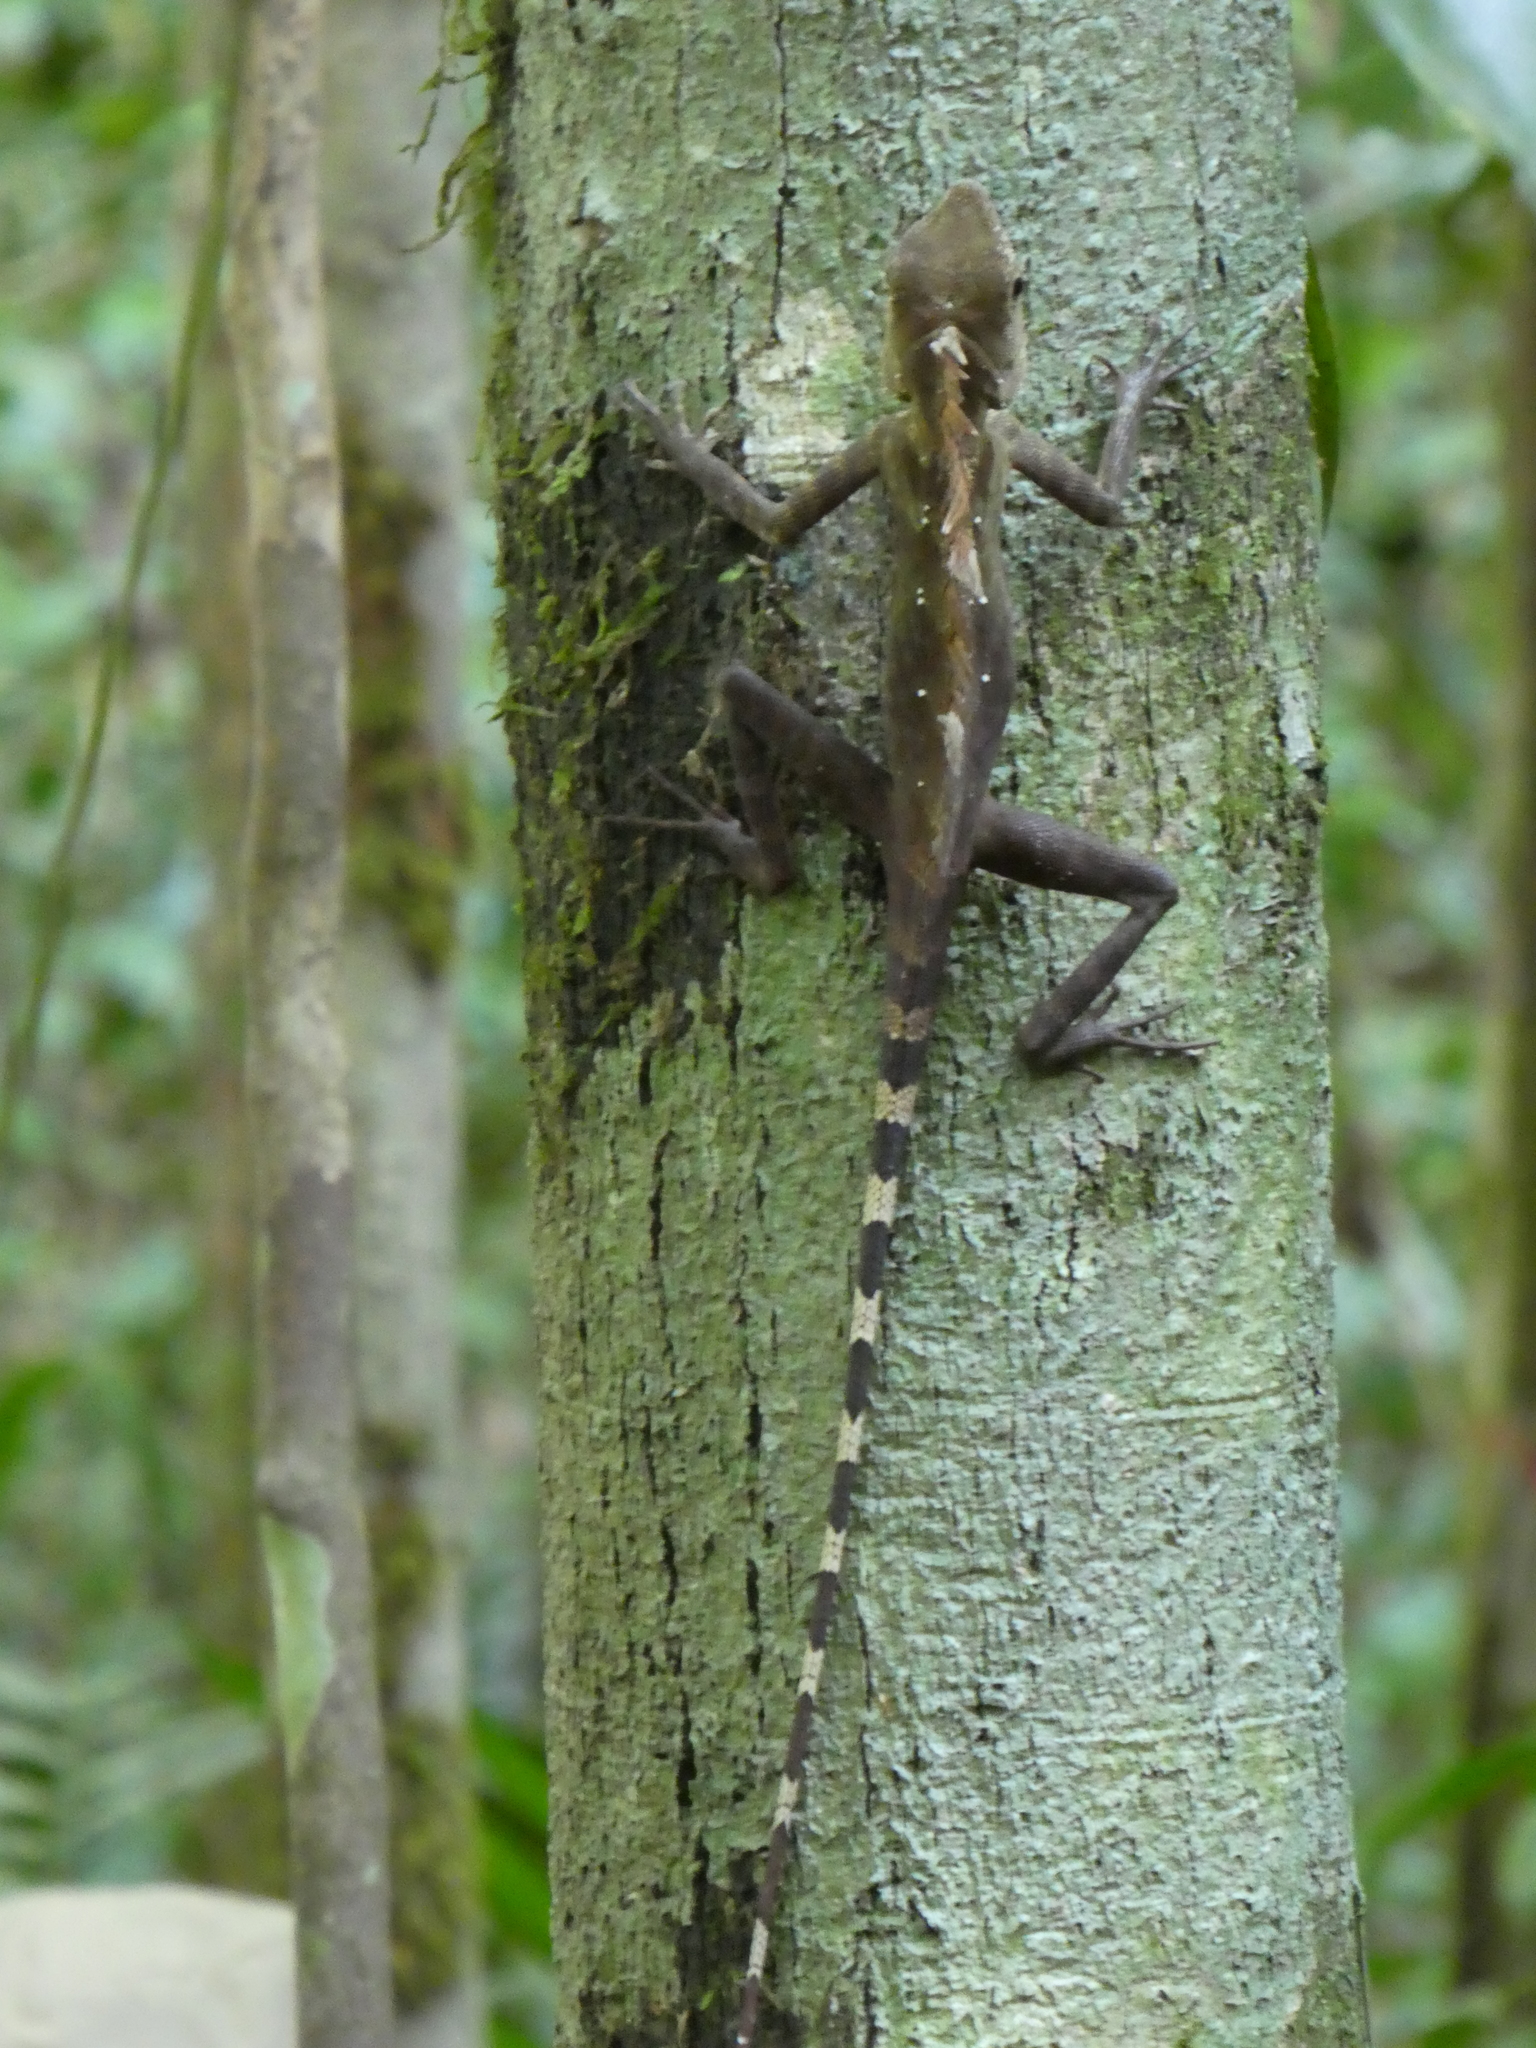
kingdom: Animalia
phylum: Chordata
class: Squamata
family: Agamidae
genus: Gonocephalus
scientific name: Gonocephalus bornensis
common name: Borneo forest dragon
